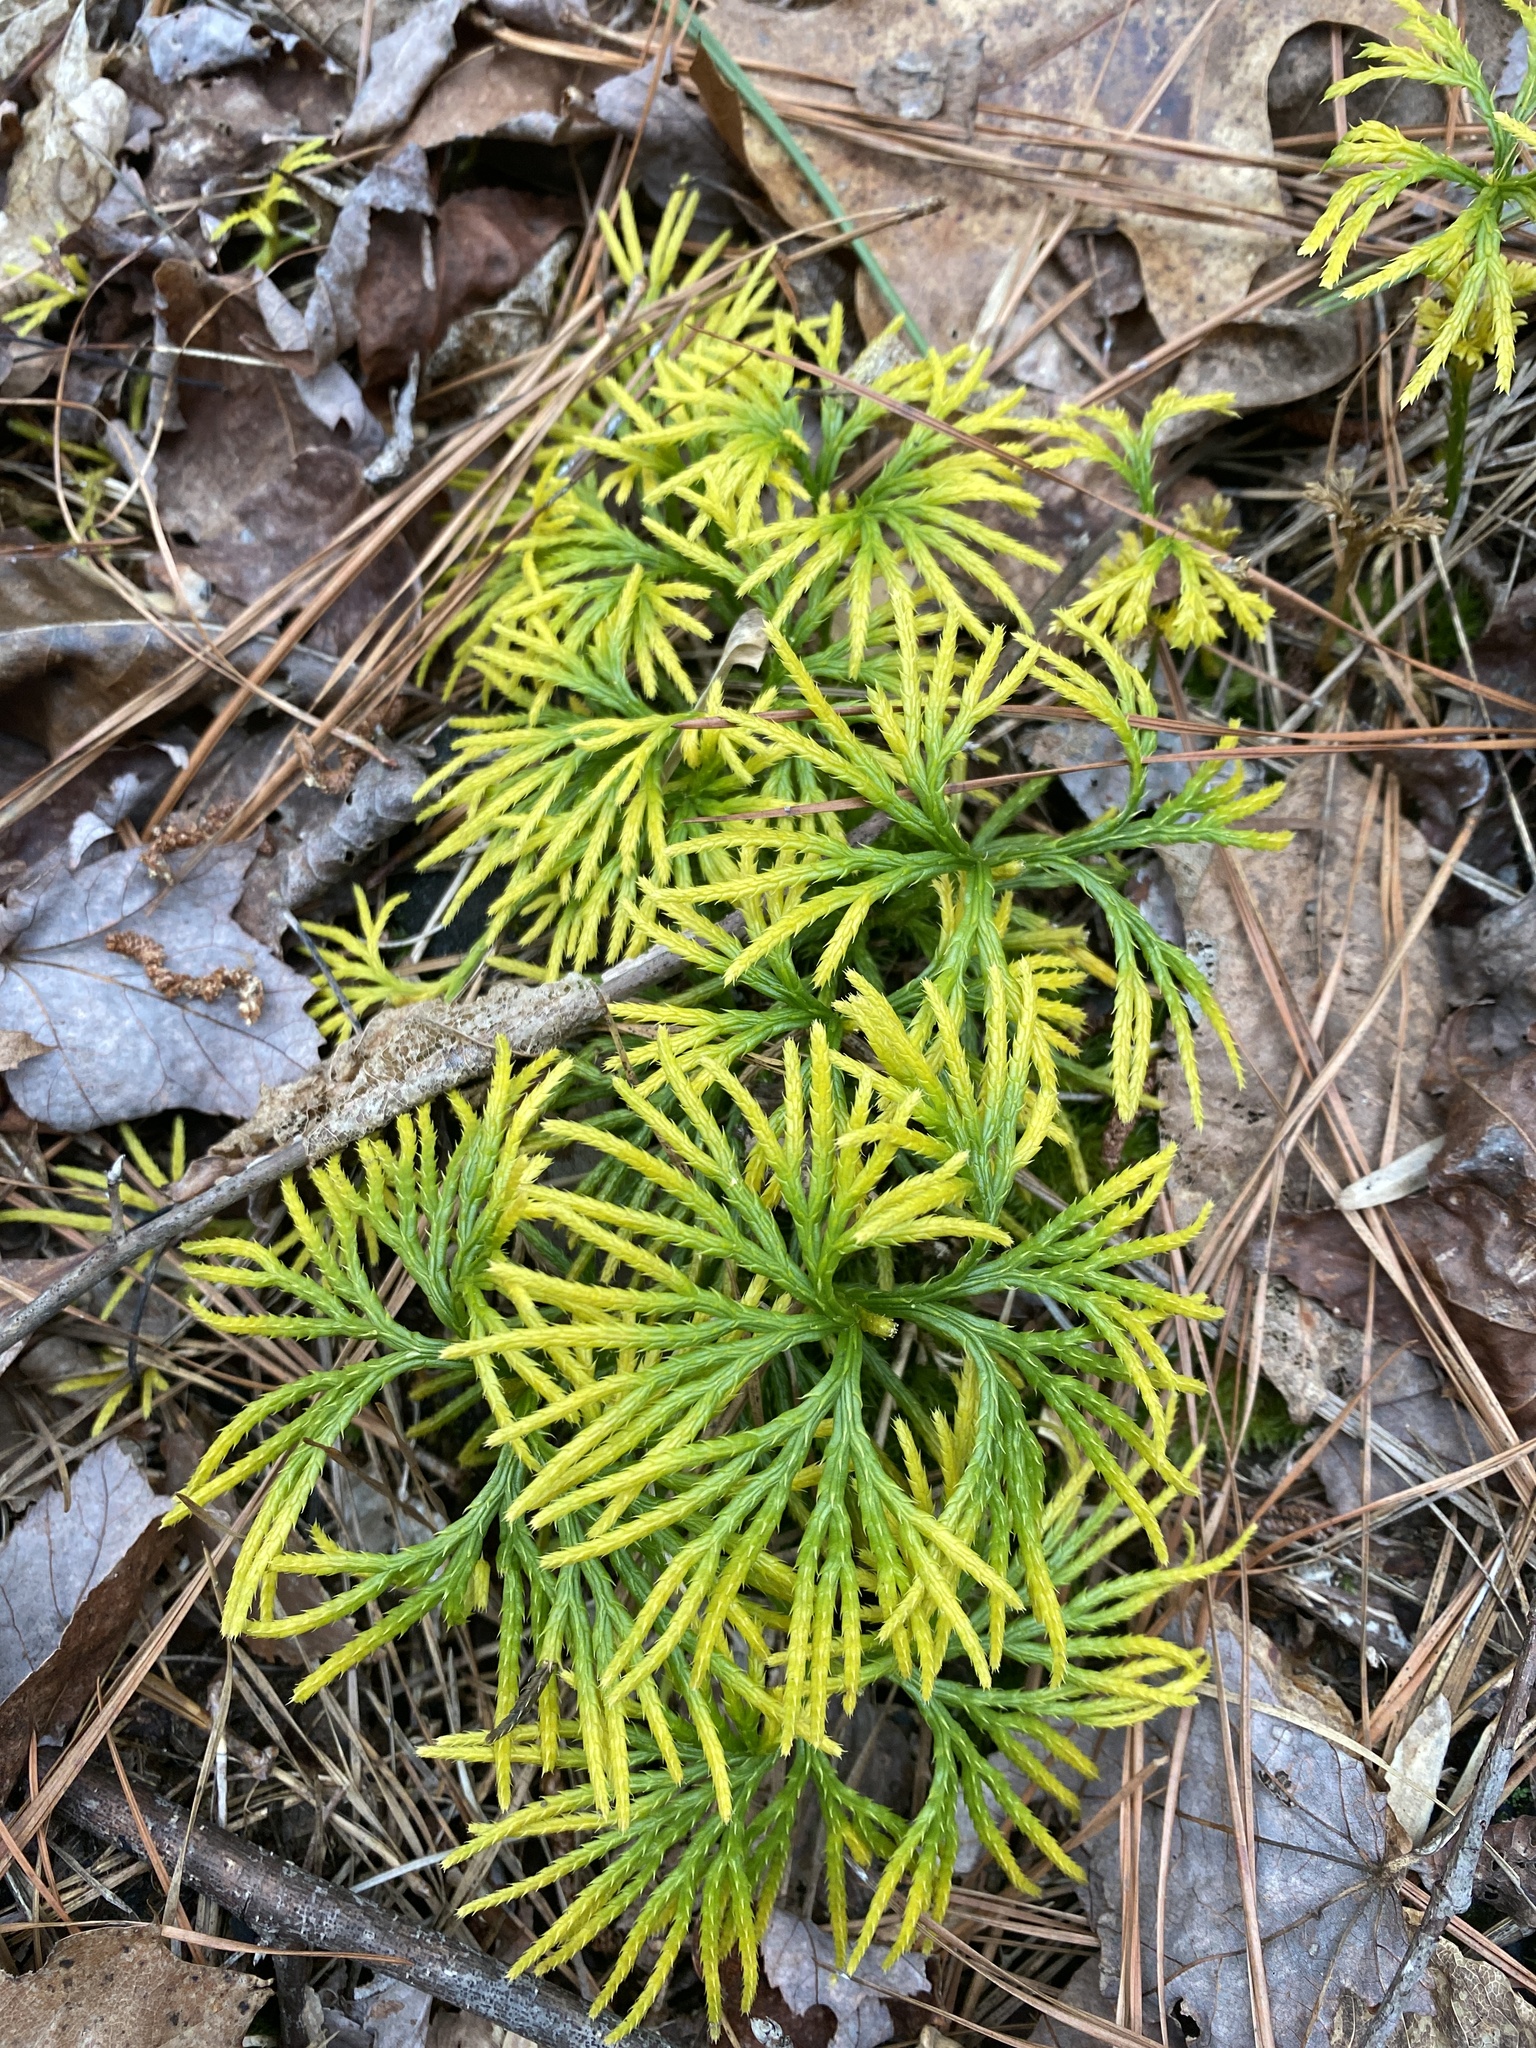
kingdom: Plantae
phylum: Tracheophyta
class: Lycopodiopsida
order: Lycopodiales
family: Lycopodiaceae
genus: Diphasiastrum
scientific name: Diphasiastrum digitatum
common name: Southern running-pine
